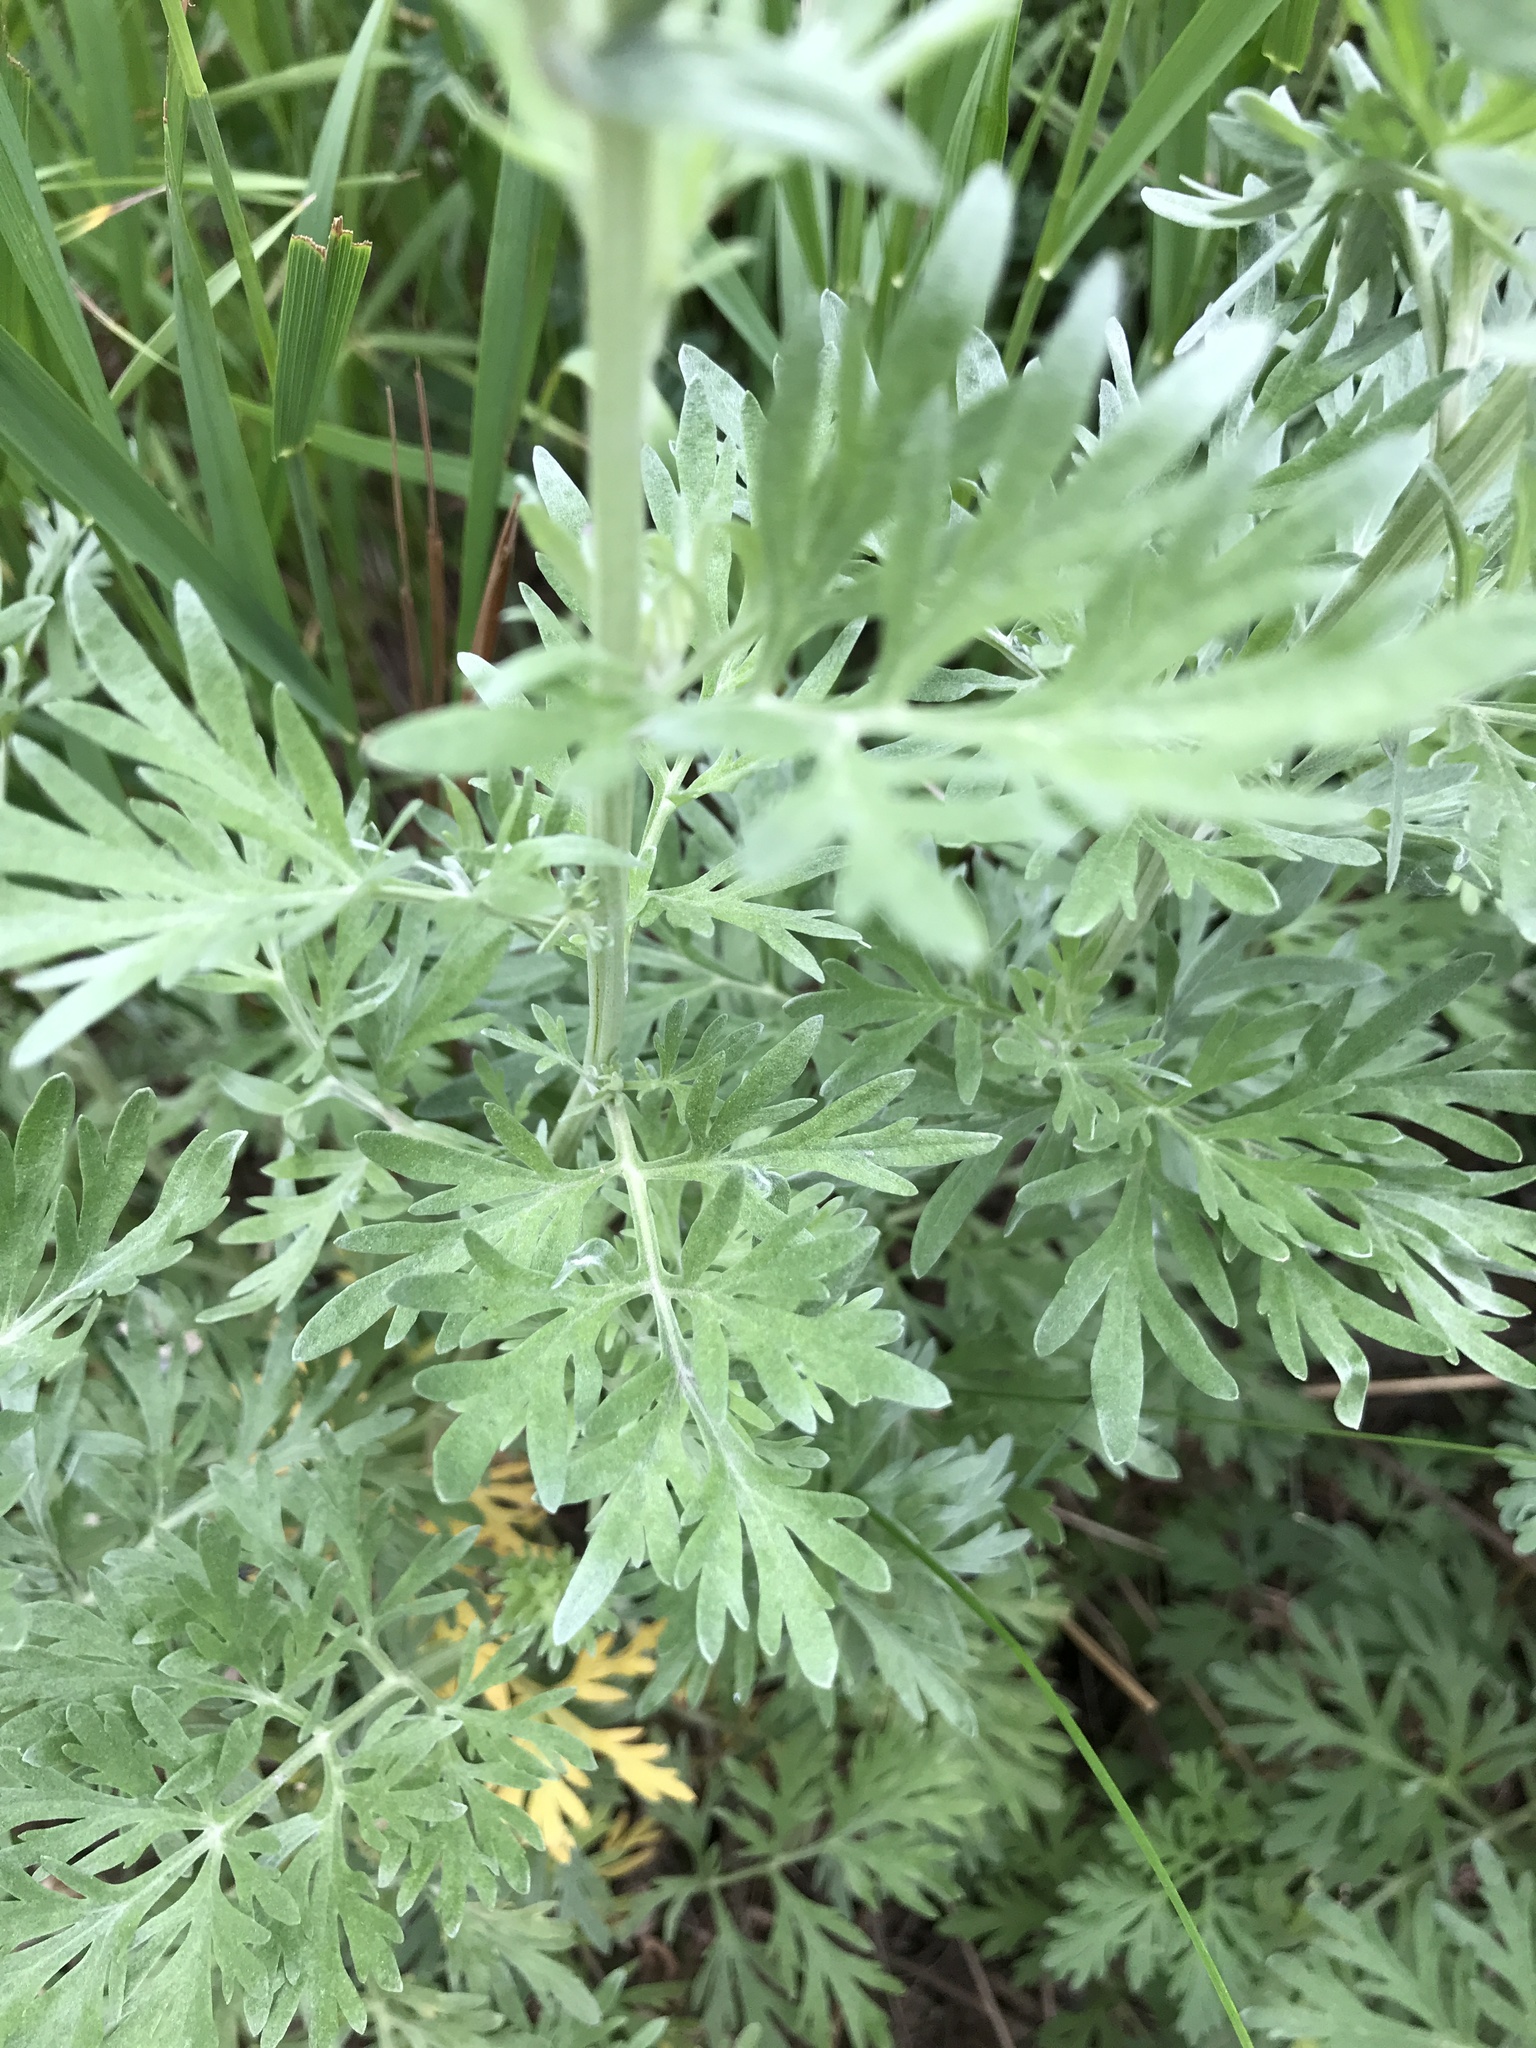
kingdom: Plantae
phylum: Tracheophyta
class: Magnoliopsida
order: Asterales
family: Asteraceae
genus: Artemisia
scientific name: Artemisia absinthium
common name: Wormwood
